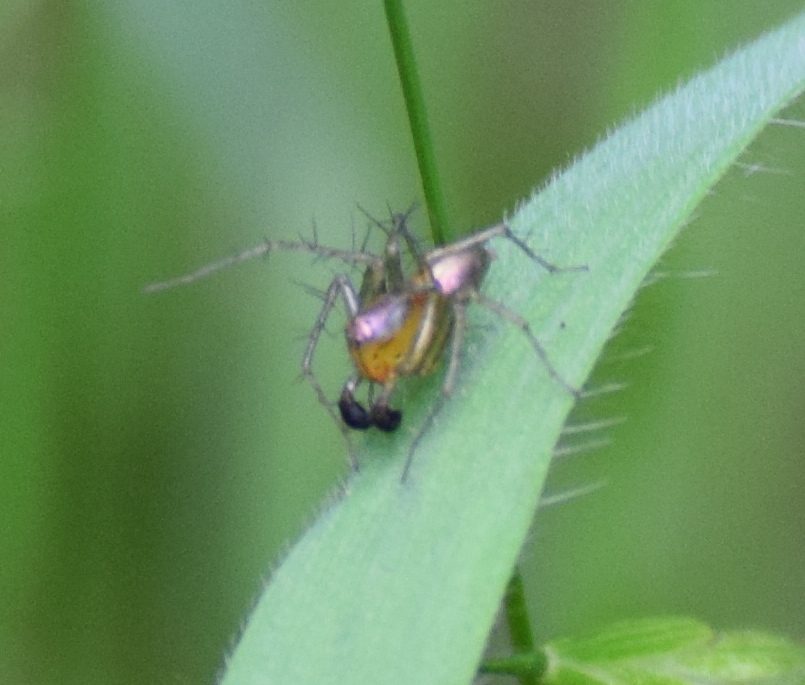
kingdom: Animalia
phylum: Arthropoda
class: Arachnida
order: Araneae
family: Oxyopidae
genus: Oxyopes
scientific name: Oxyopes salticus
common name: Lynx spiders
